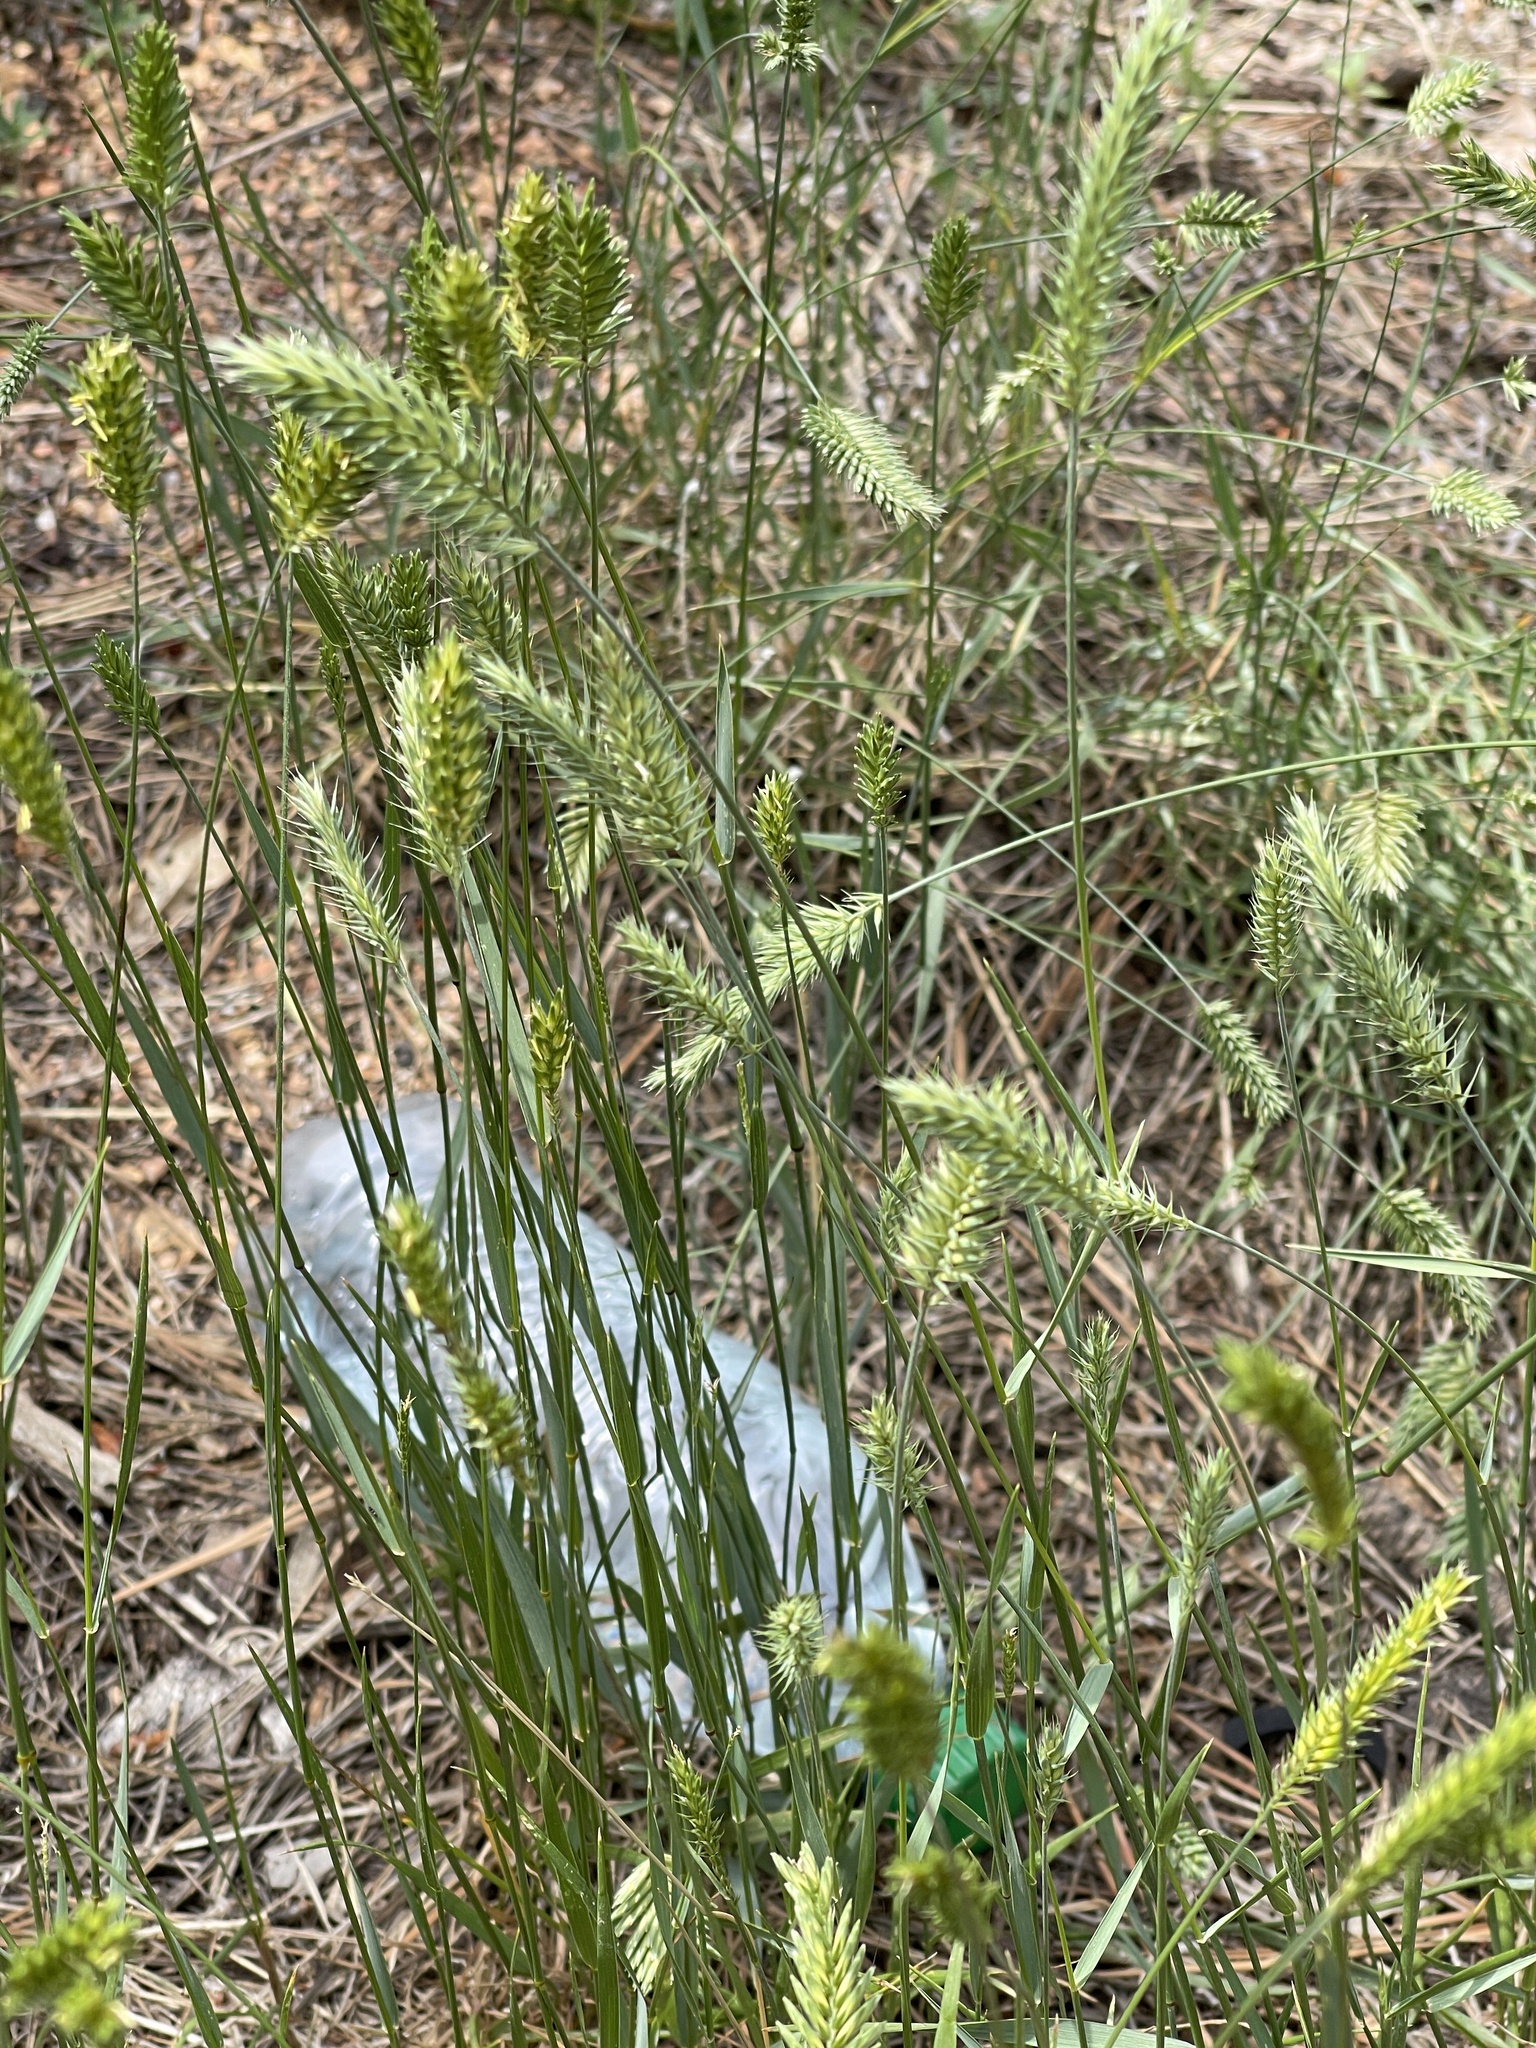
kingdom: Plantae
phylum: Tracheophyta
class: Liliopsida
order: Poales
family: Poaceae
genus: Agropyron
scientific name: Agropyron cristatum
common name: Crested wheatgrass
